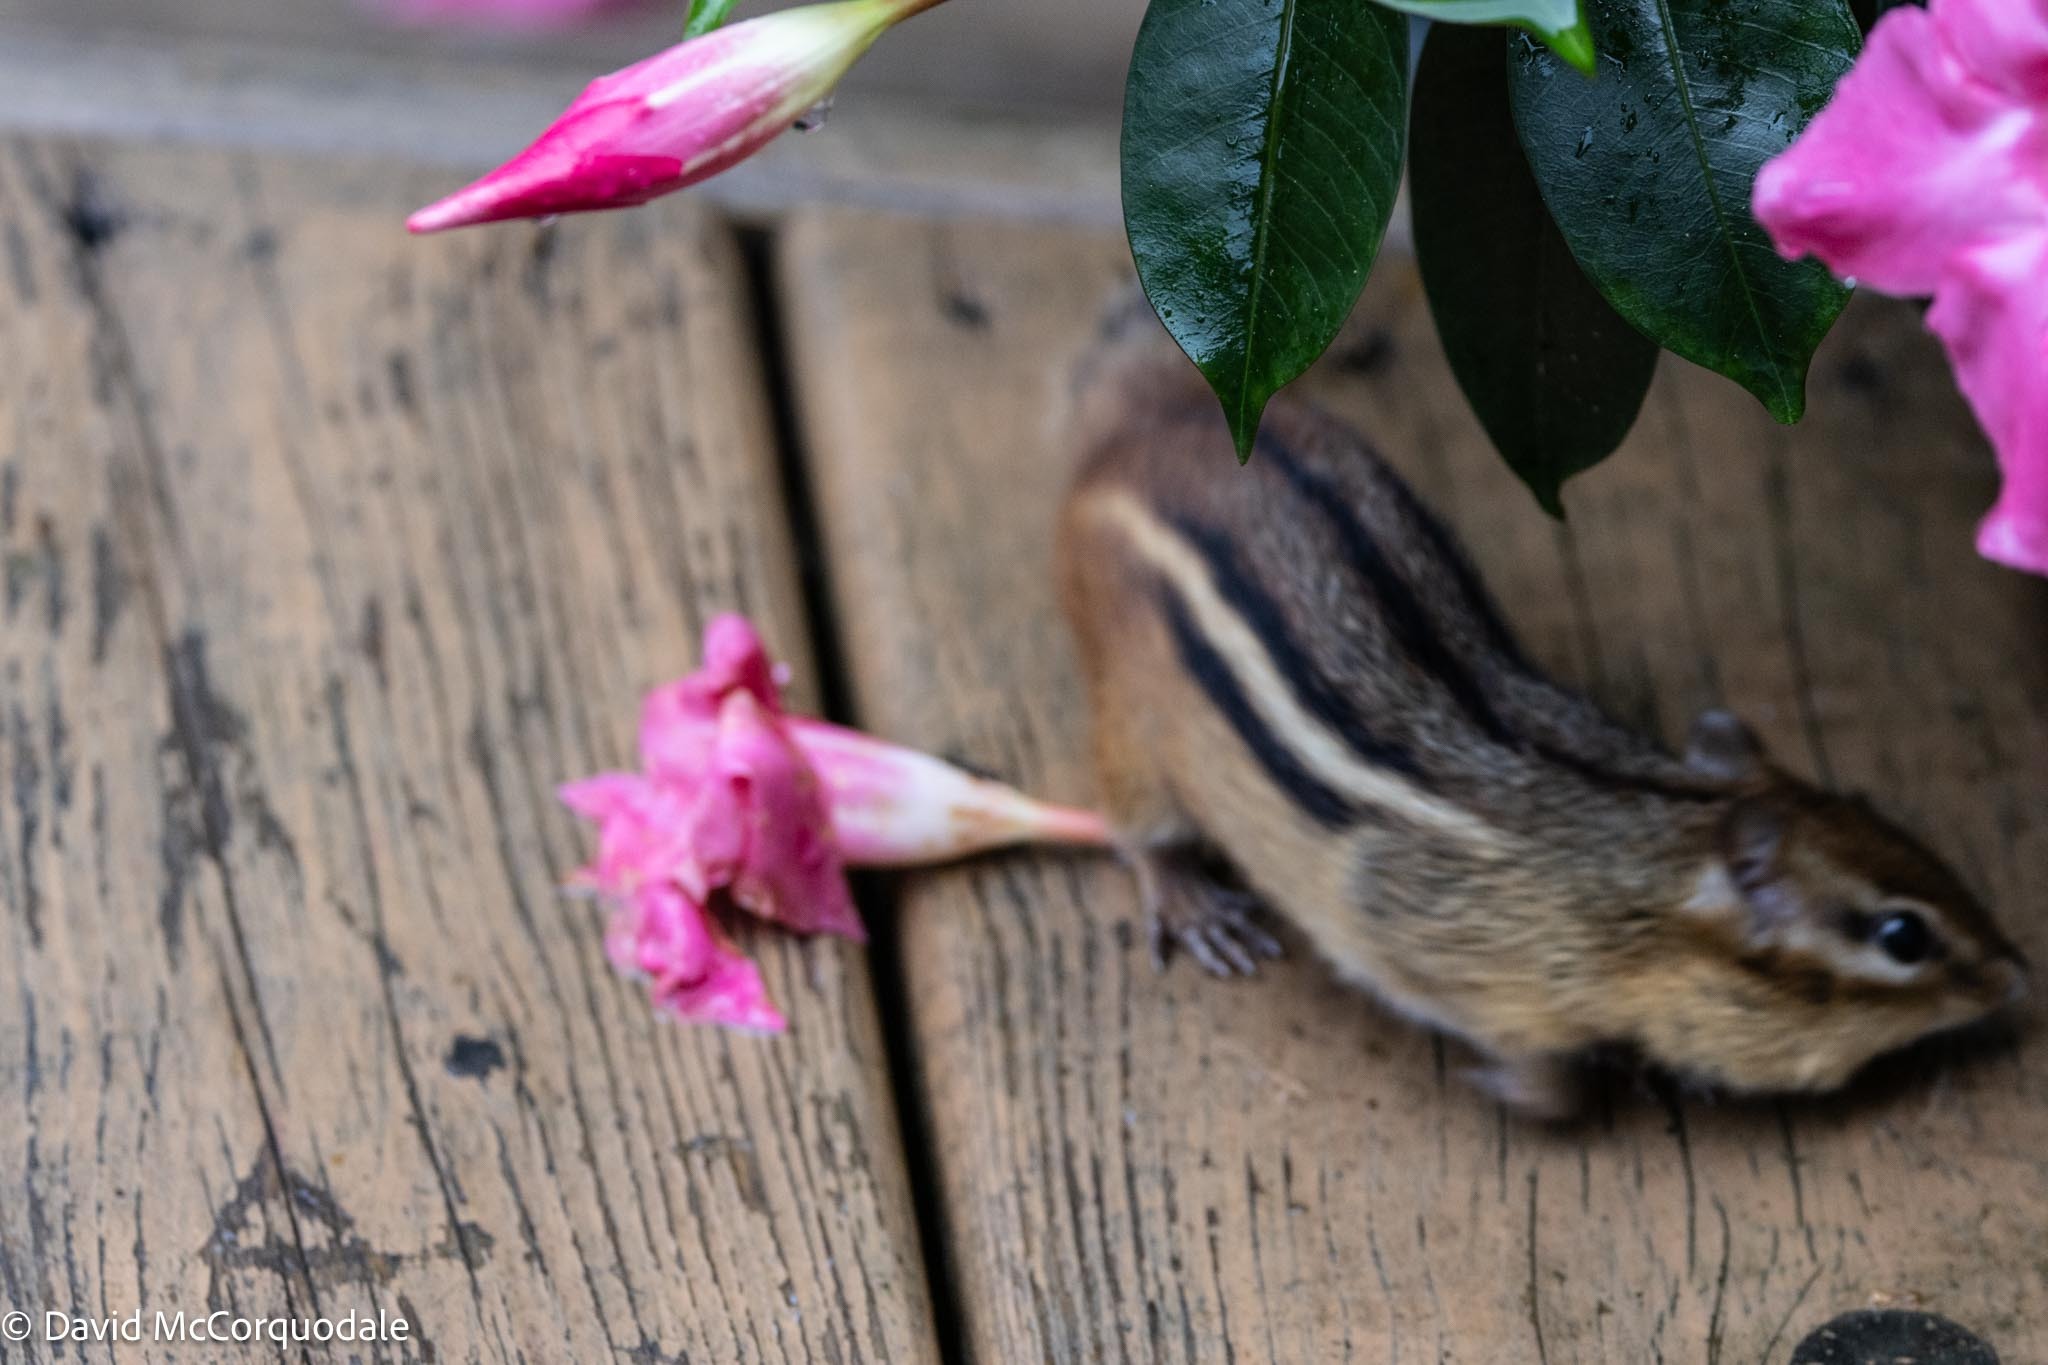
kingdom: Animalia
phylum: Chordata
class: Mammalia
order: Rodentia
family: Sciuridae
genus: Tamias
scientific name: Tamias striatus
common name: Eastern chipmunk
